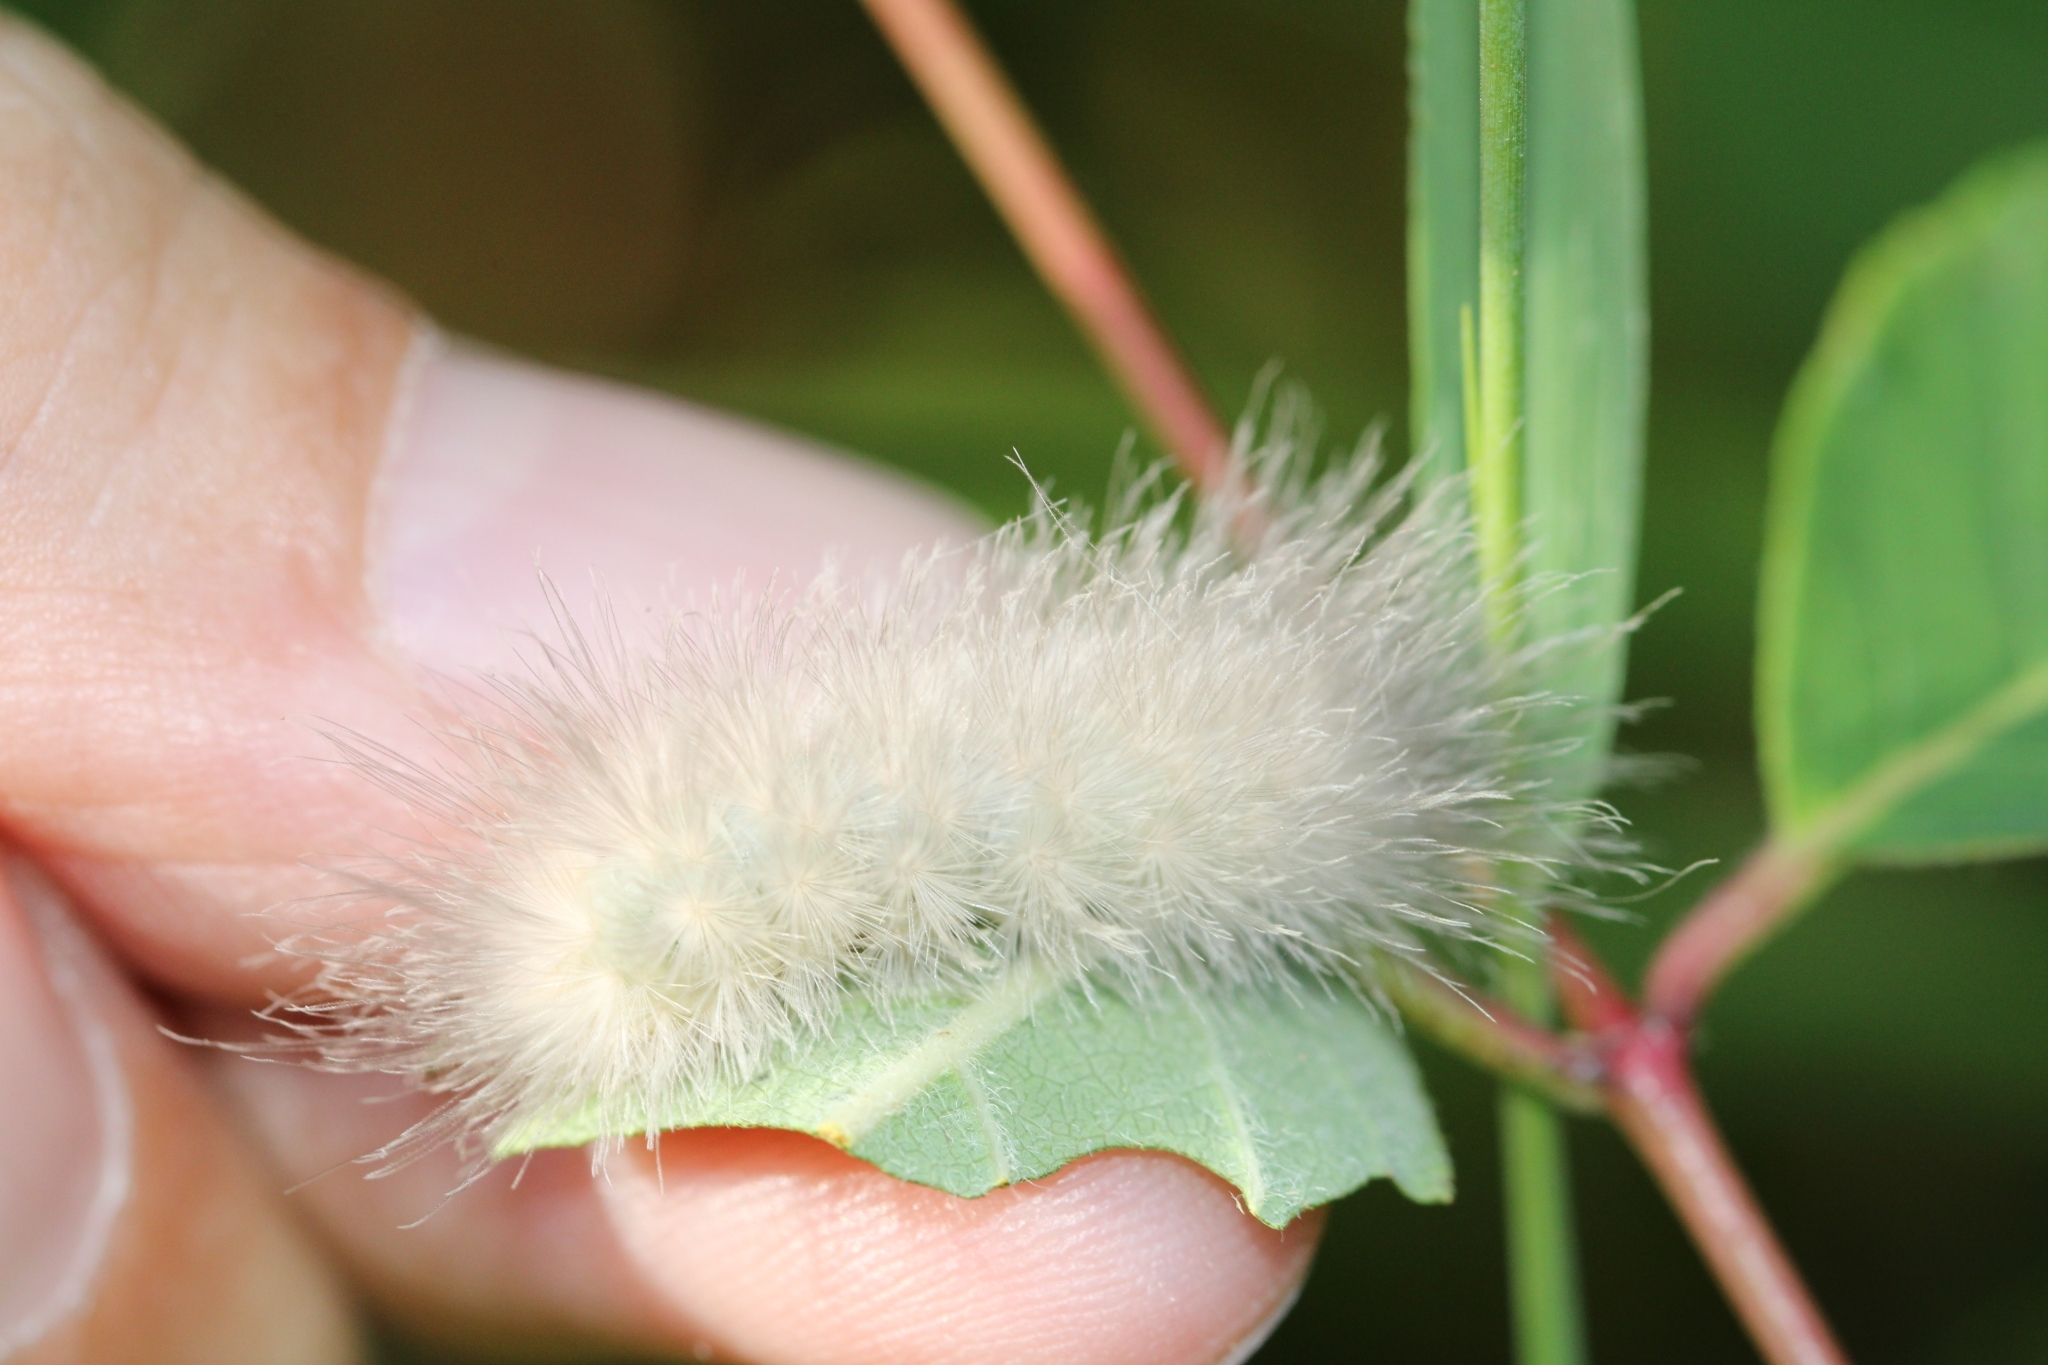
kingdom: Animalia
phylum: Arthropoda
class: Insecta
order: Lepidoptera
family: Erebidae
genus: Cycnia
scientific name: Cycnia tenera
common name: Delicate cycnia moth
